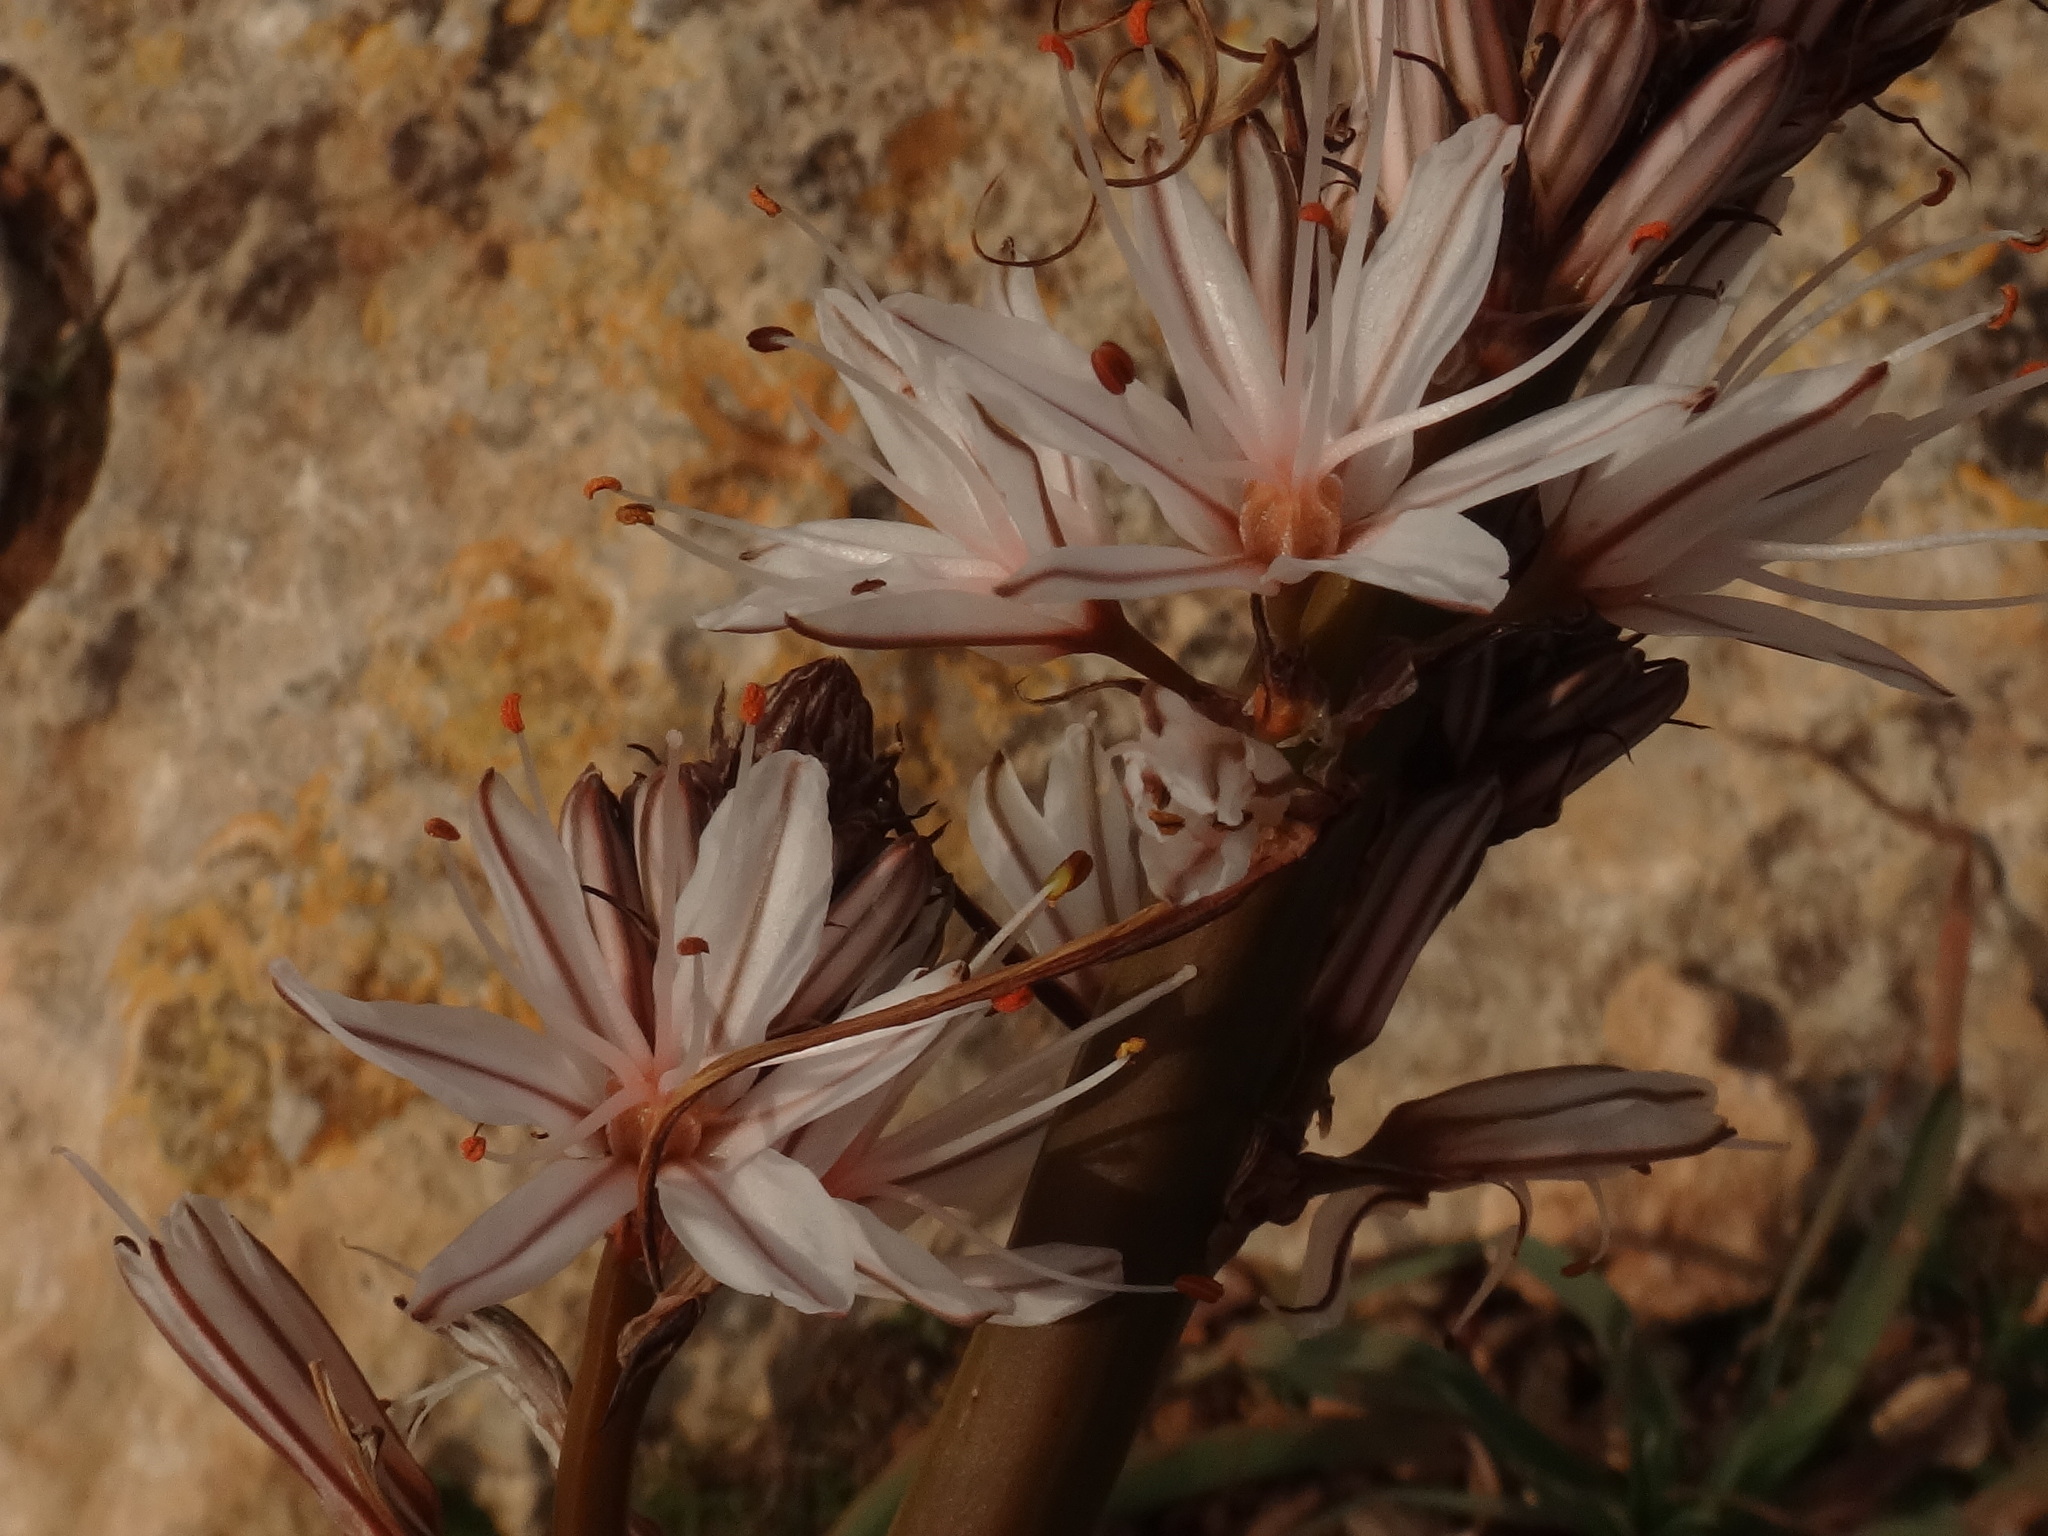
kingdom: Plantae
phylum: Tracheophyta
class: Liliopsida
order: Asparagales
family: Asphodelaceae
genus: Asphodelus
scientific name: Asphodelus ramosus
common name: Silverrod
